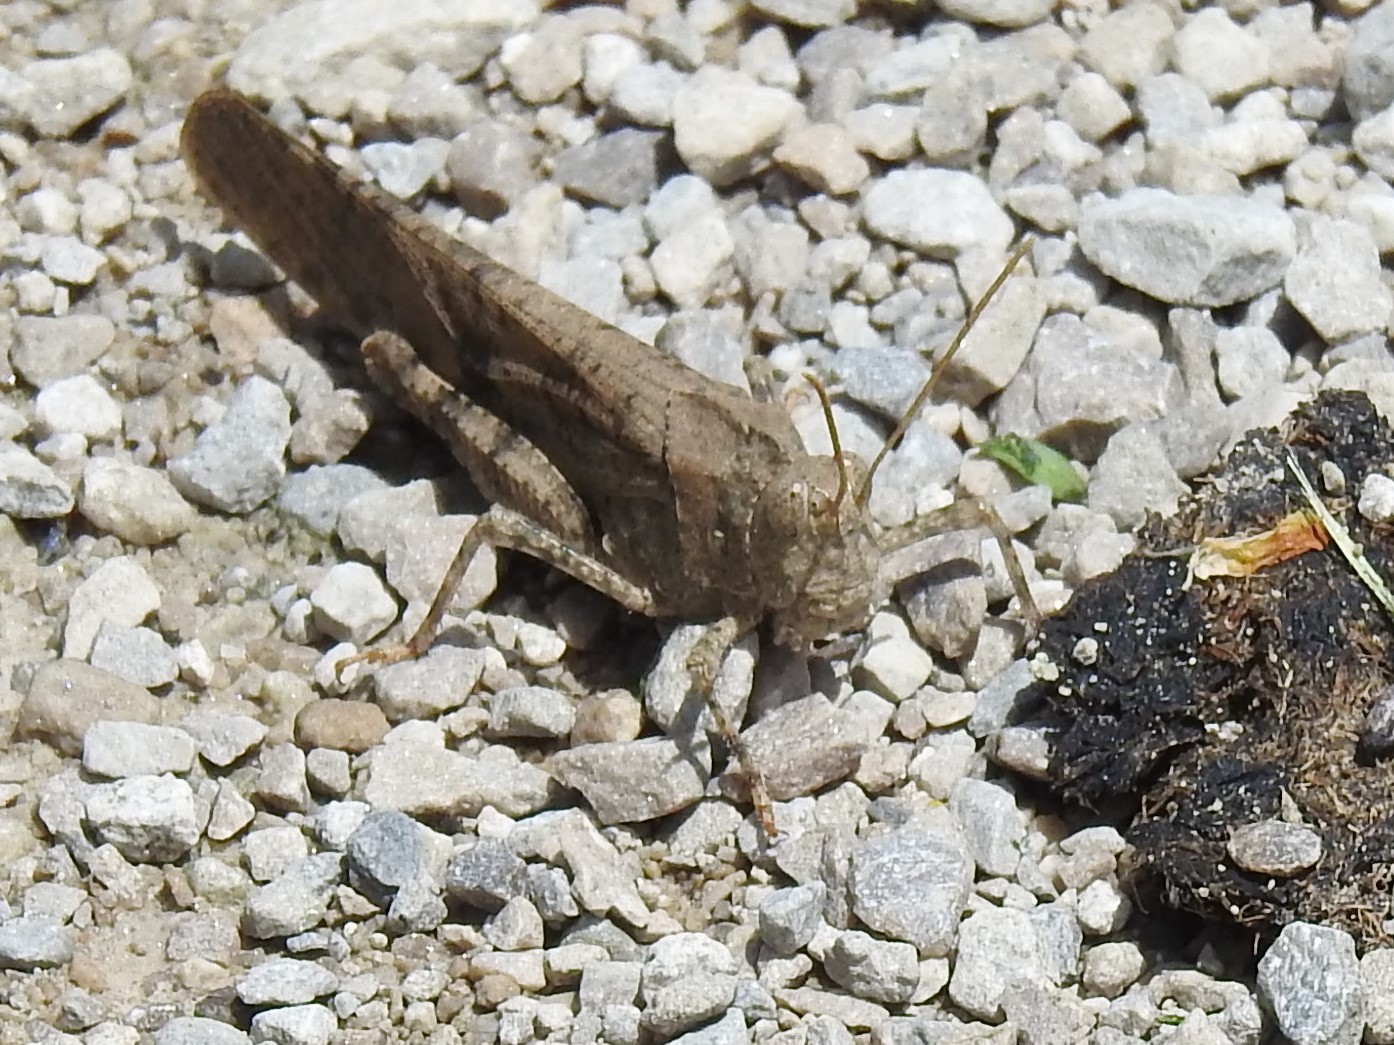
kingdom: Animalia
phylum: Arthropoda
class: Insecta
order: Orthoptera
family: Acrididae
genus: Dissosteira
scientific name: Dissosteira carolina
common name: Carolina grasshopper
